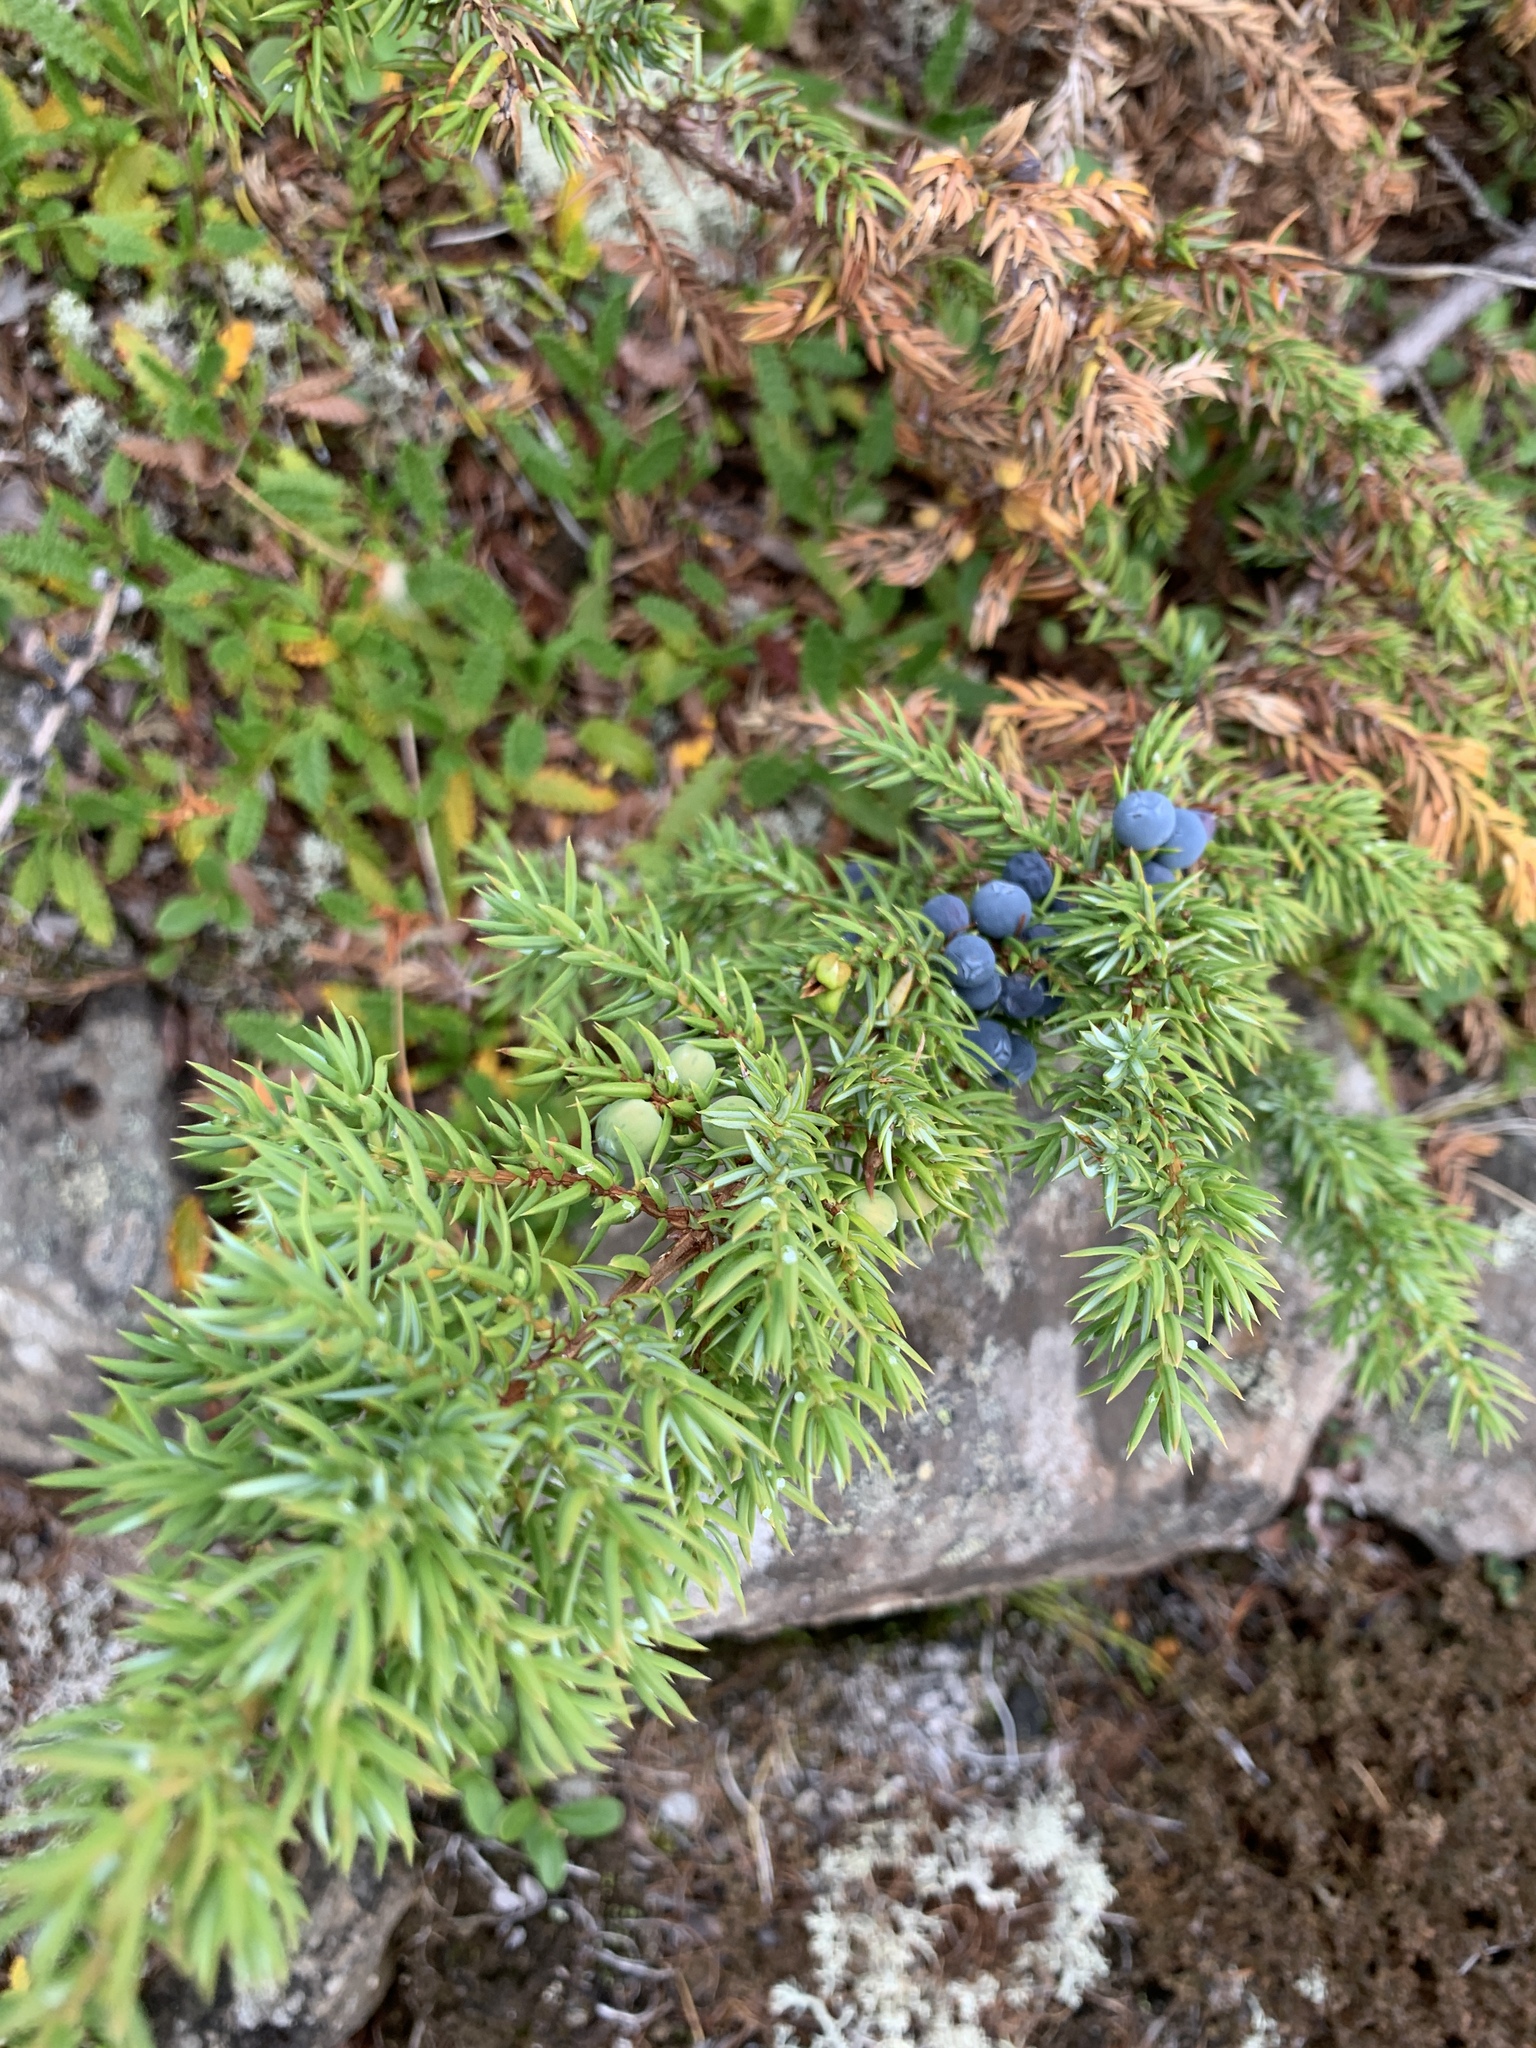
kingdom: Plantae
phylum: Tracheophyta
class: Pinopsida
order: Pinales
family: Cupressaceae
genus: Juniperus
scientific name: Juniperus communis
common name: Common juniper
